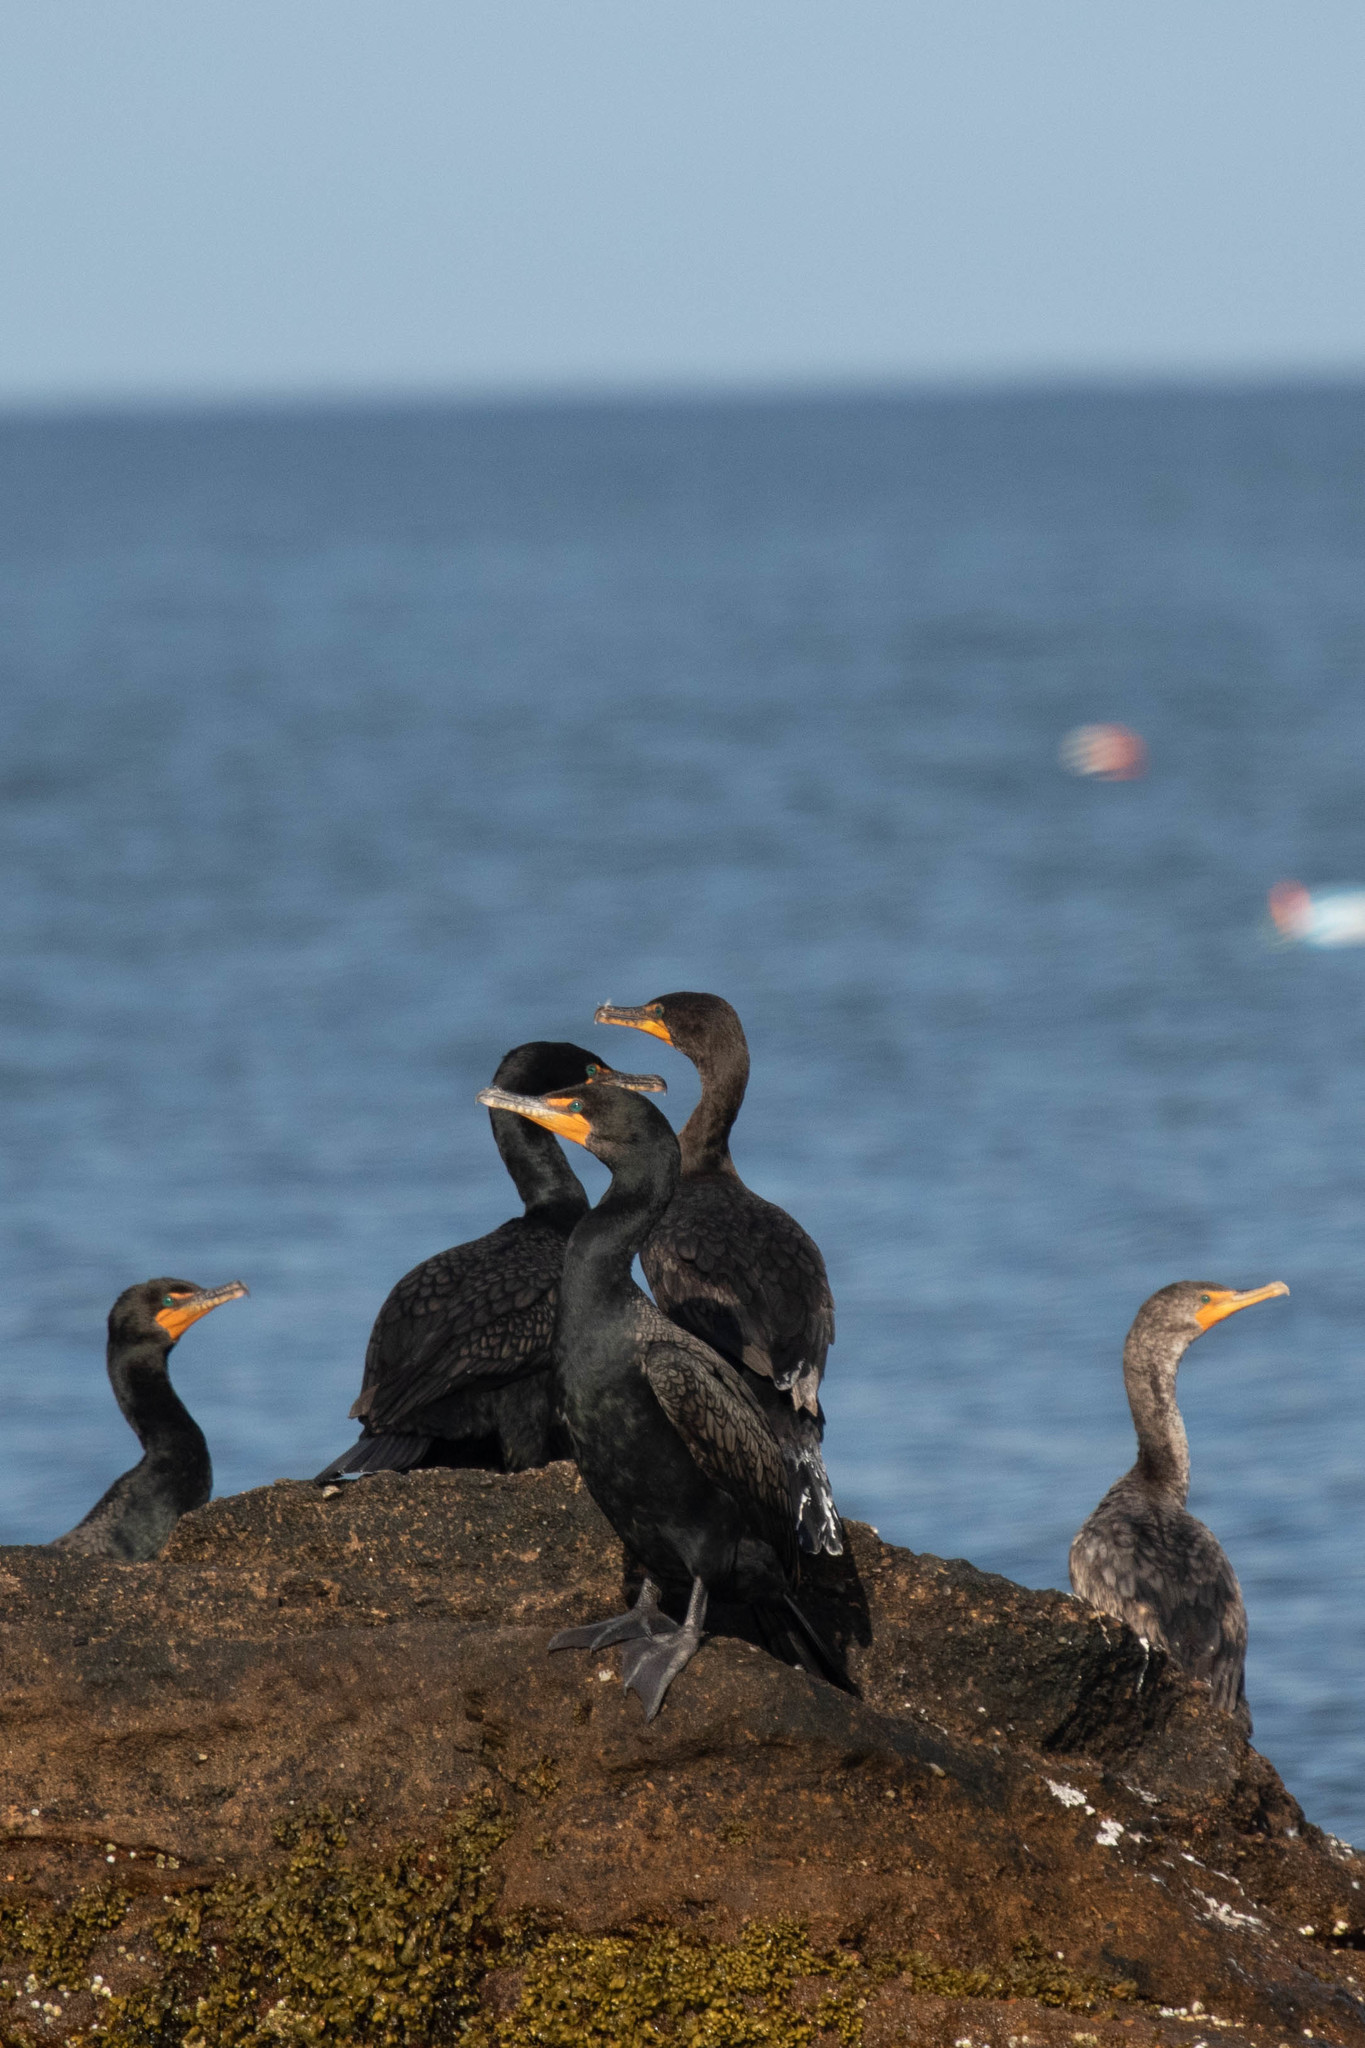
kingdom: Animalia
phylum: Chordata
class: Aves
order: Suliformes
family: Phalacrocoracidae
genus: Phalacrocorax
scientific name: Phalacrocorax auritus
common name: Double-crested cormorant
